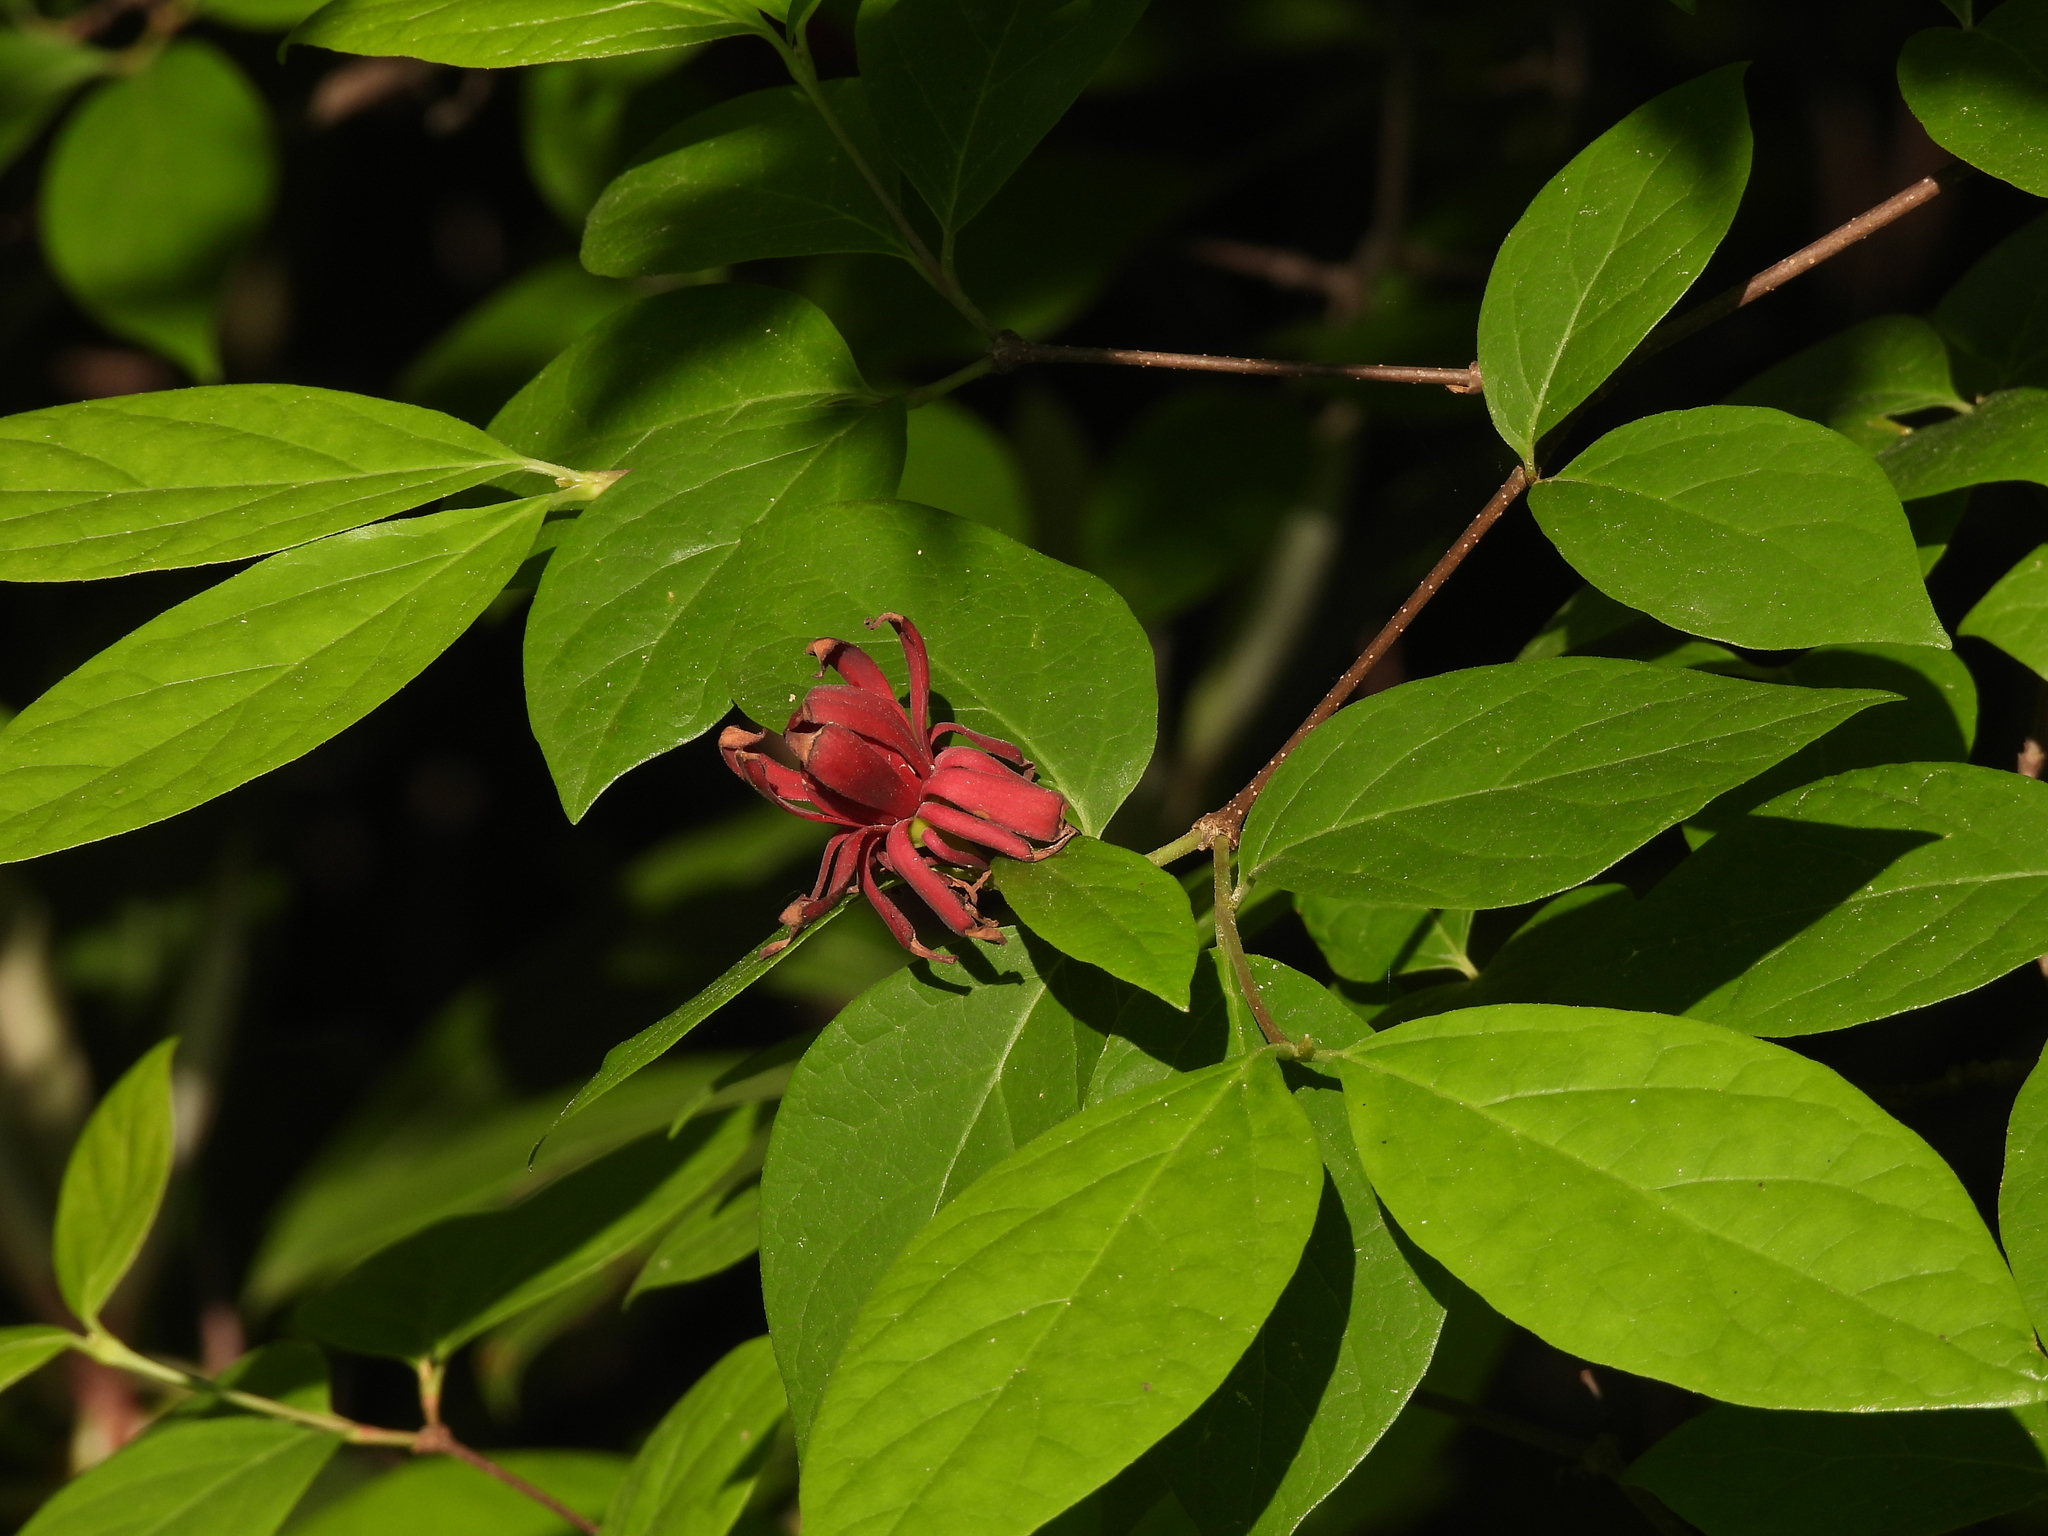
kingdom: Plantae
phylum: Tracheophyta
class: Magnoliopsida
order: Laurales
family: Calycanthaceae
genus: Calycanthus
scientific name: Calycanthus floridus
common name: Carolina-allspice
